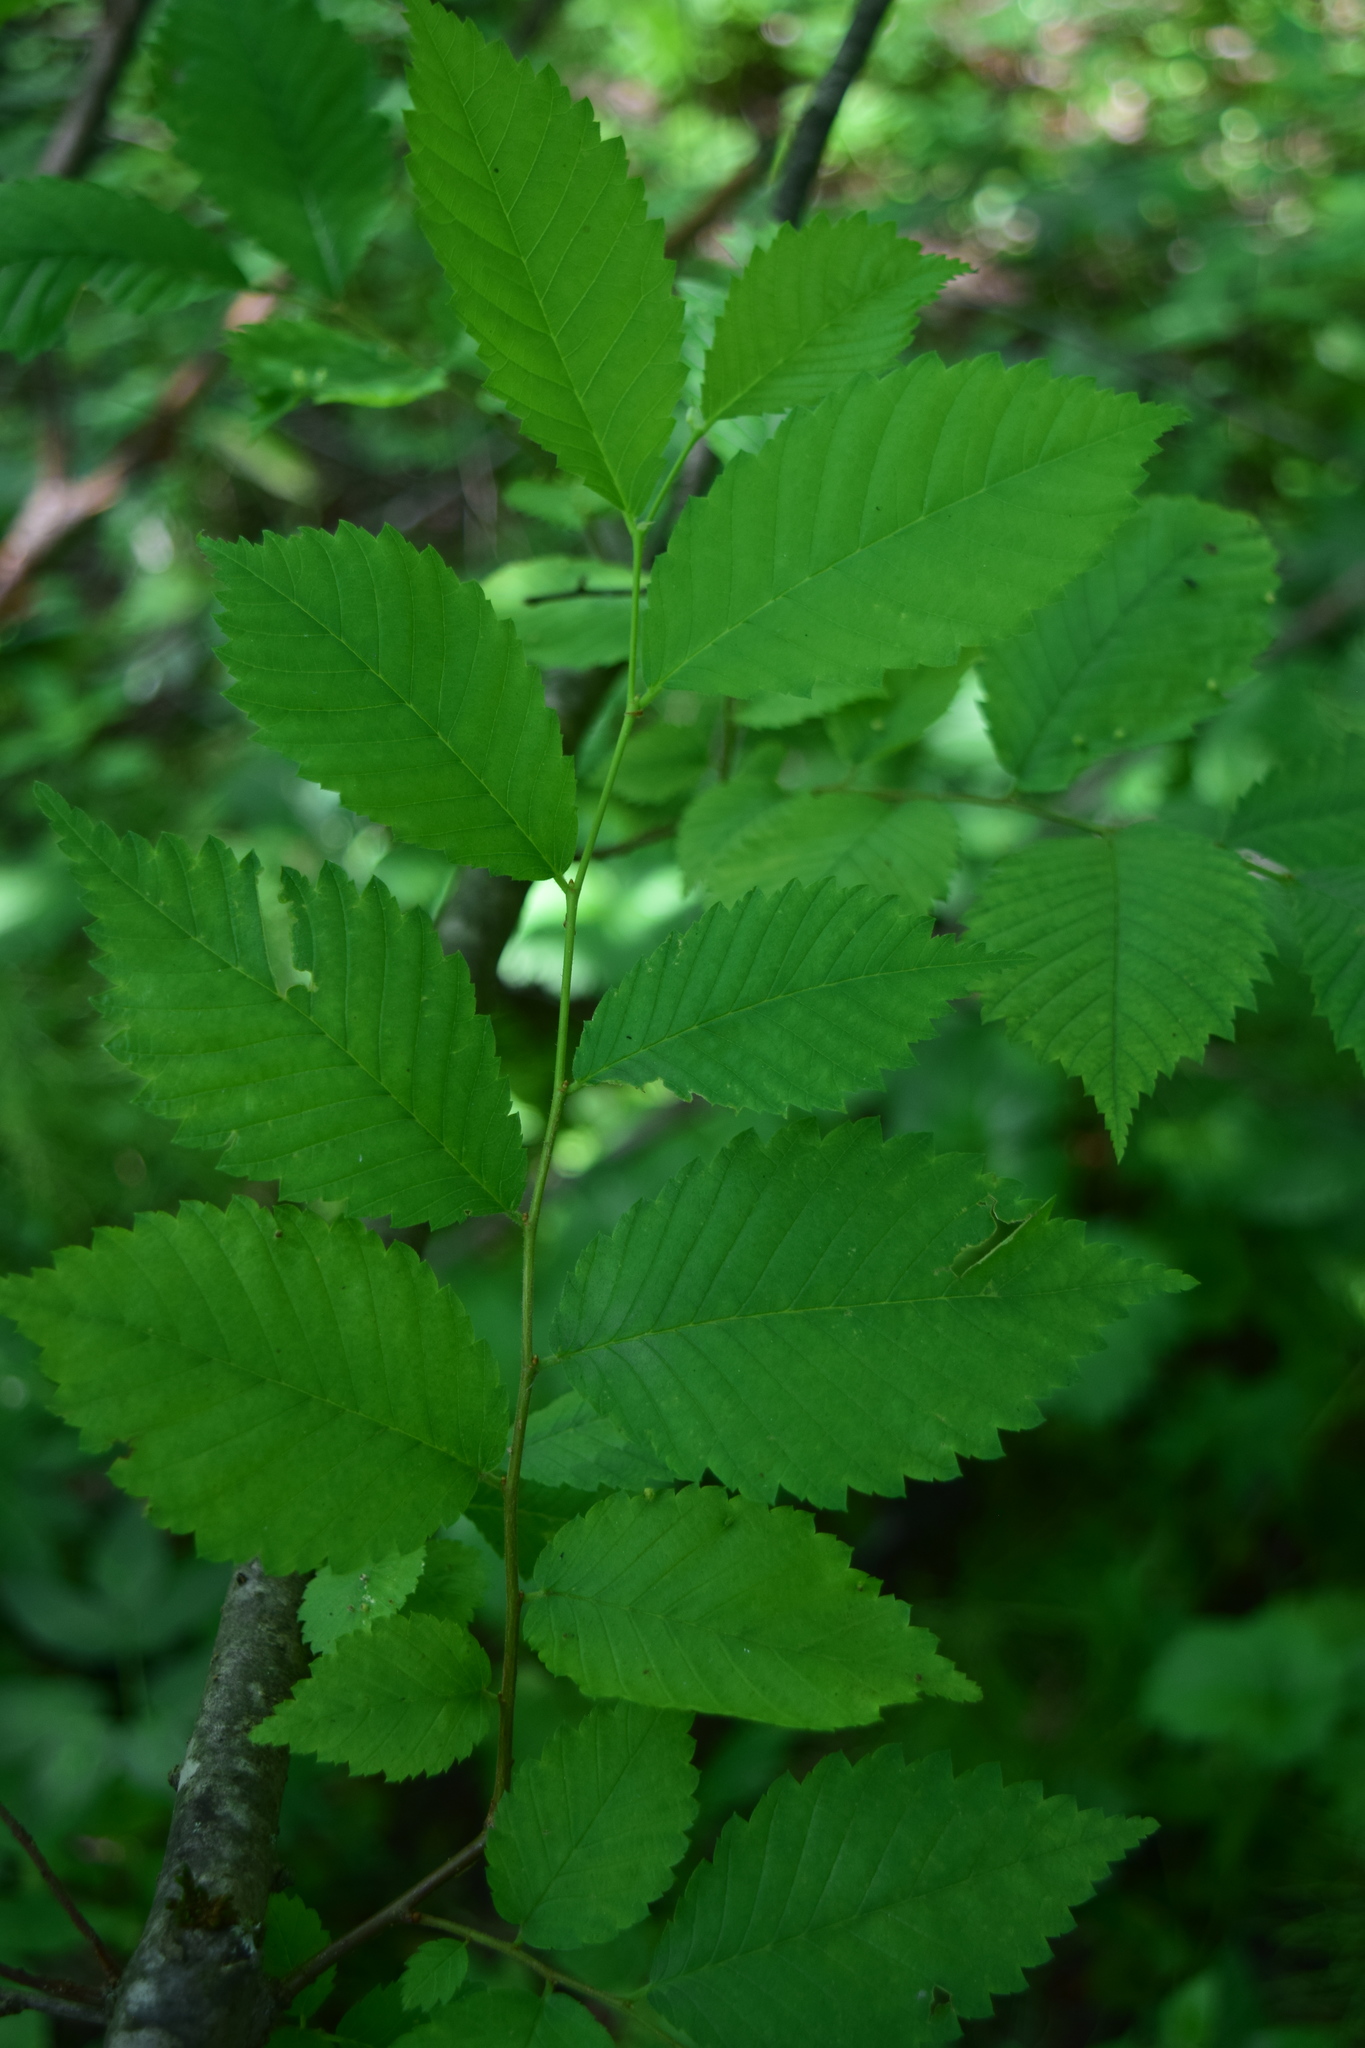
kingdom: Plantae
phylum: Tracheophyta
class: Magnoliopsida
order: Rosales
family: Ulmaceae
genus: Ulmus
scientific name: Ulmus laevis
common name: European white-elm
